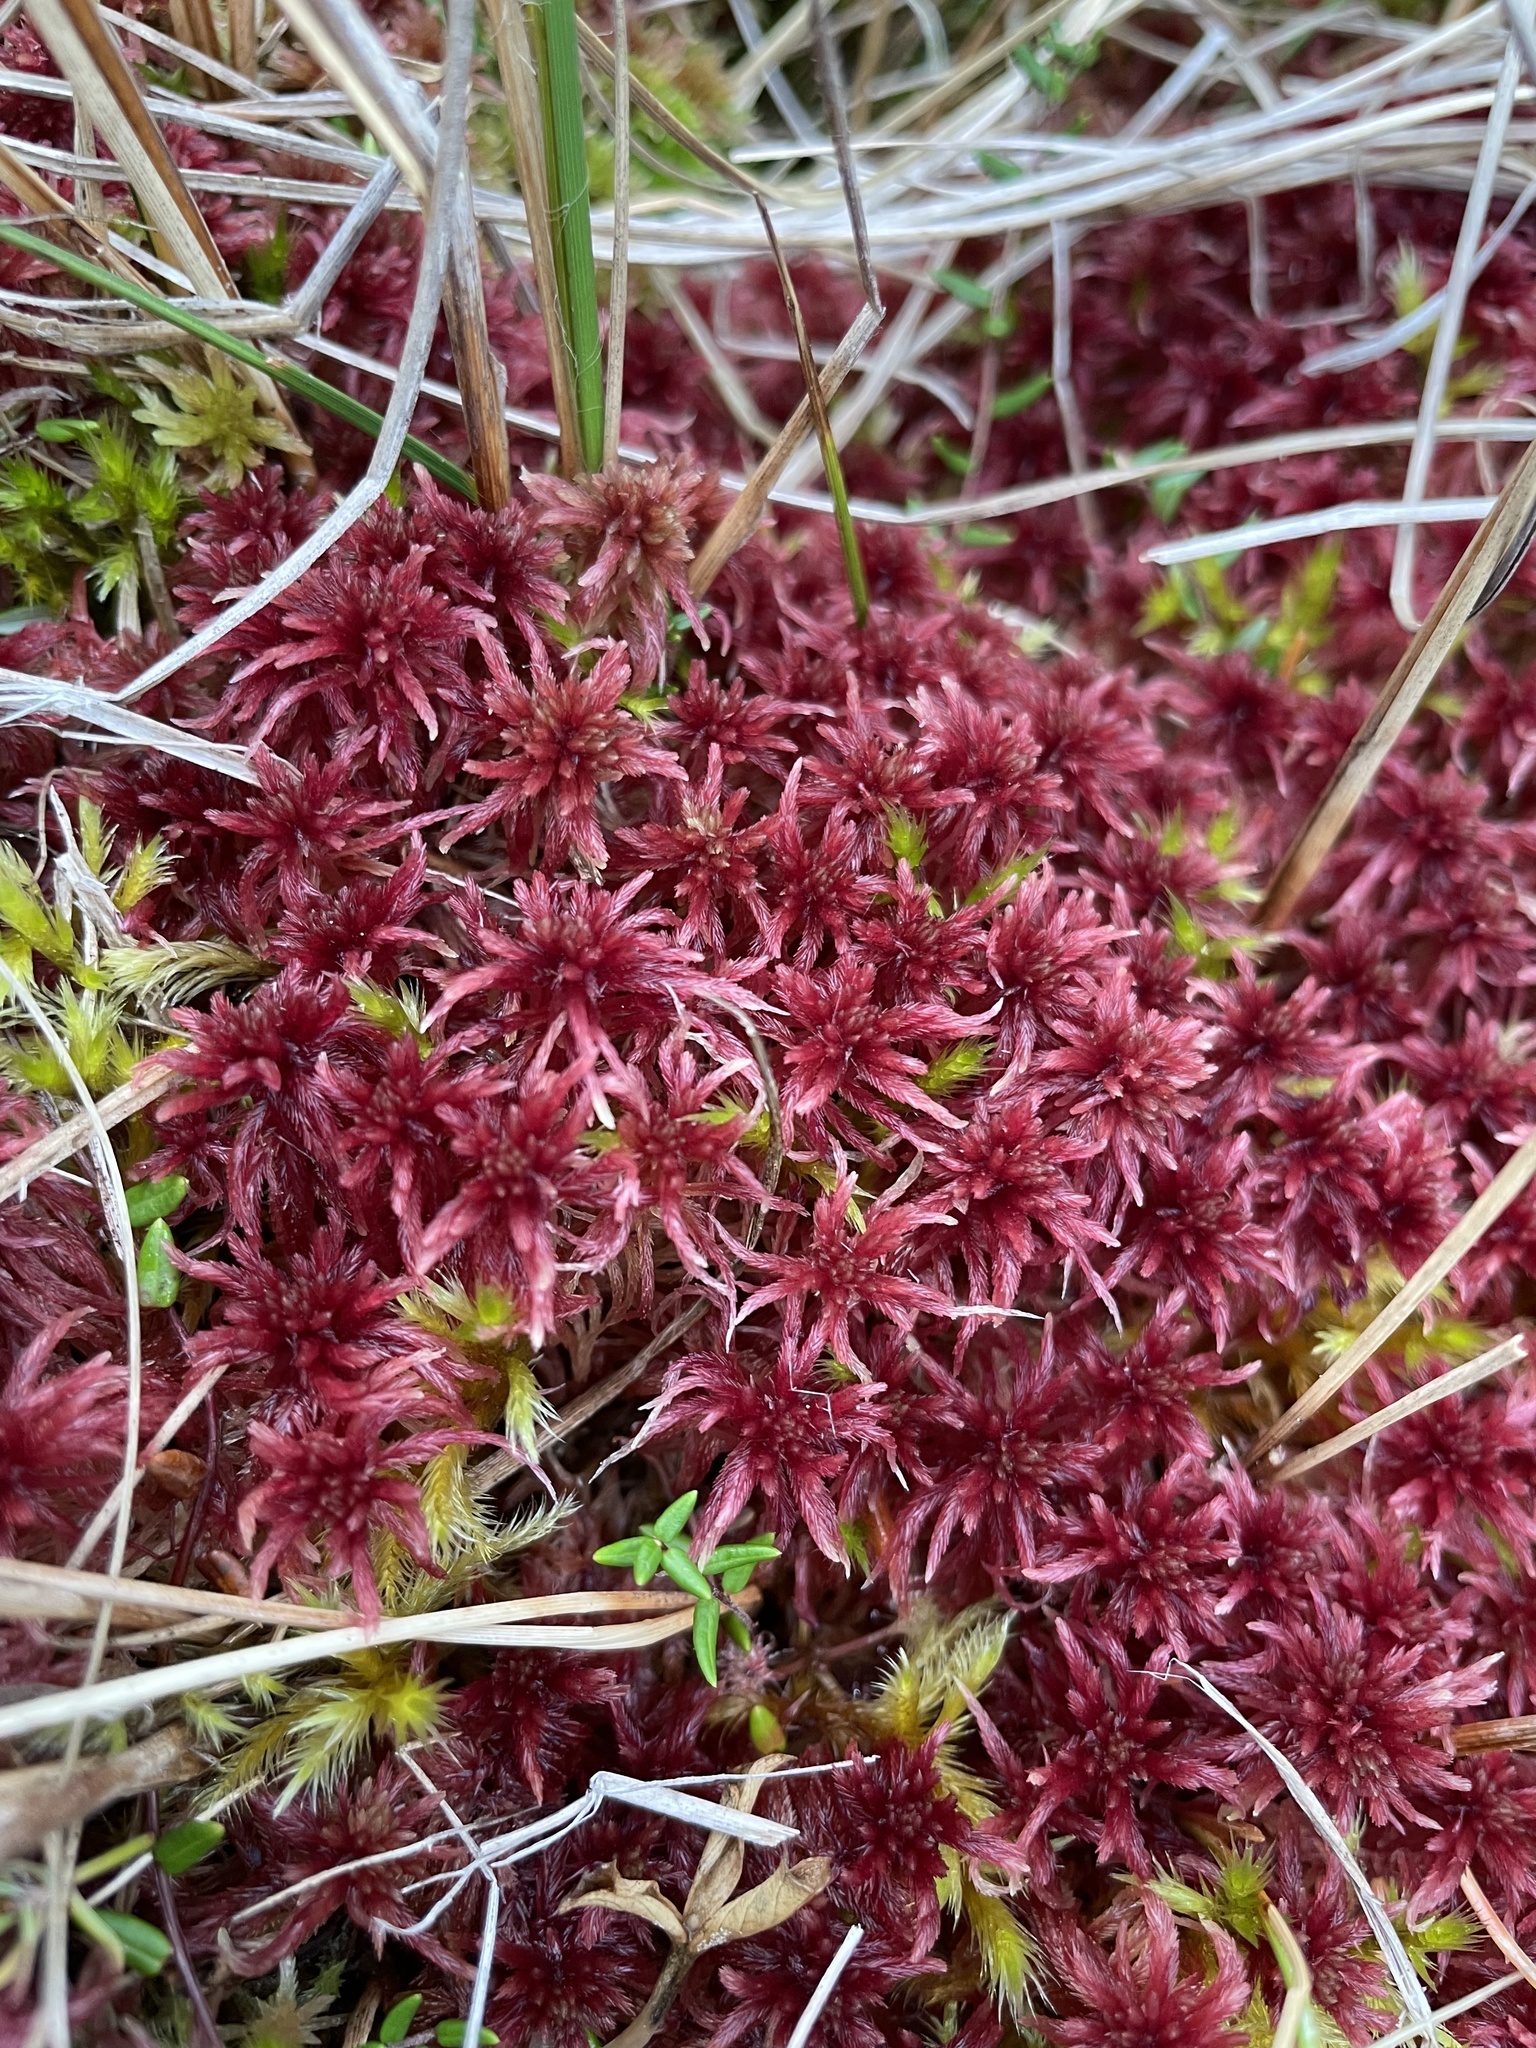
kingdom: Plantae
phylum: Bryophyta
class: Sphagnopsida
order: Sphagnales
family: Sphagnaceae
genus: Sphagnum
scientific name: Sphagnum warnstorfii
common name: Warnstorf's peat moss
